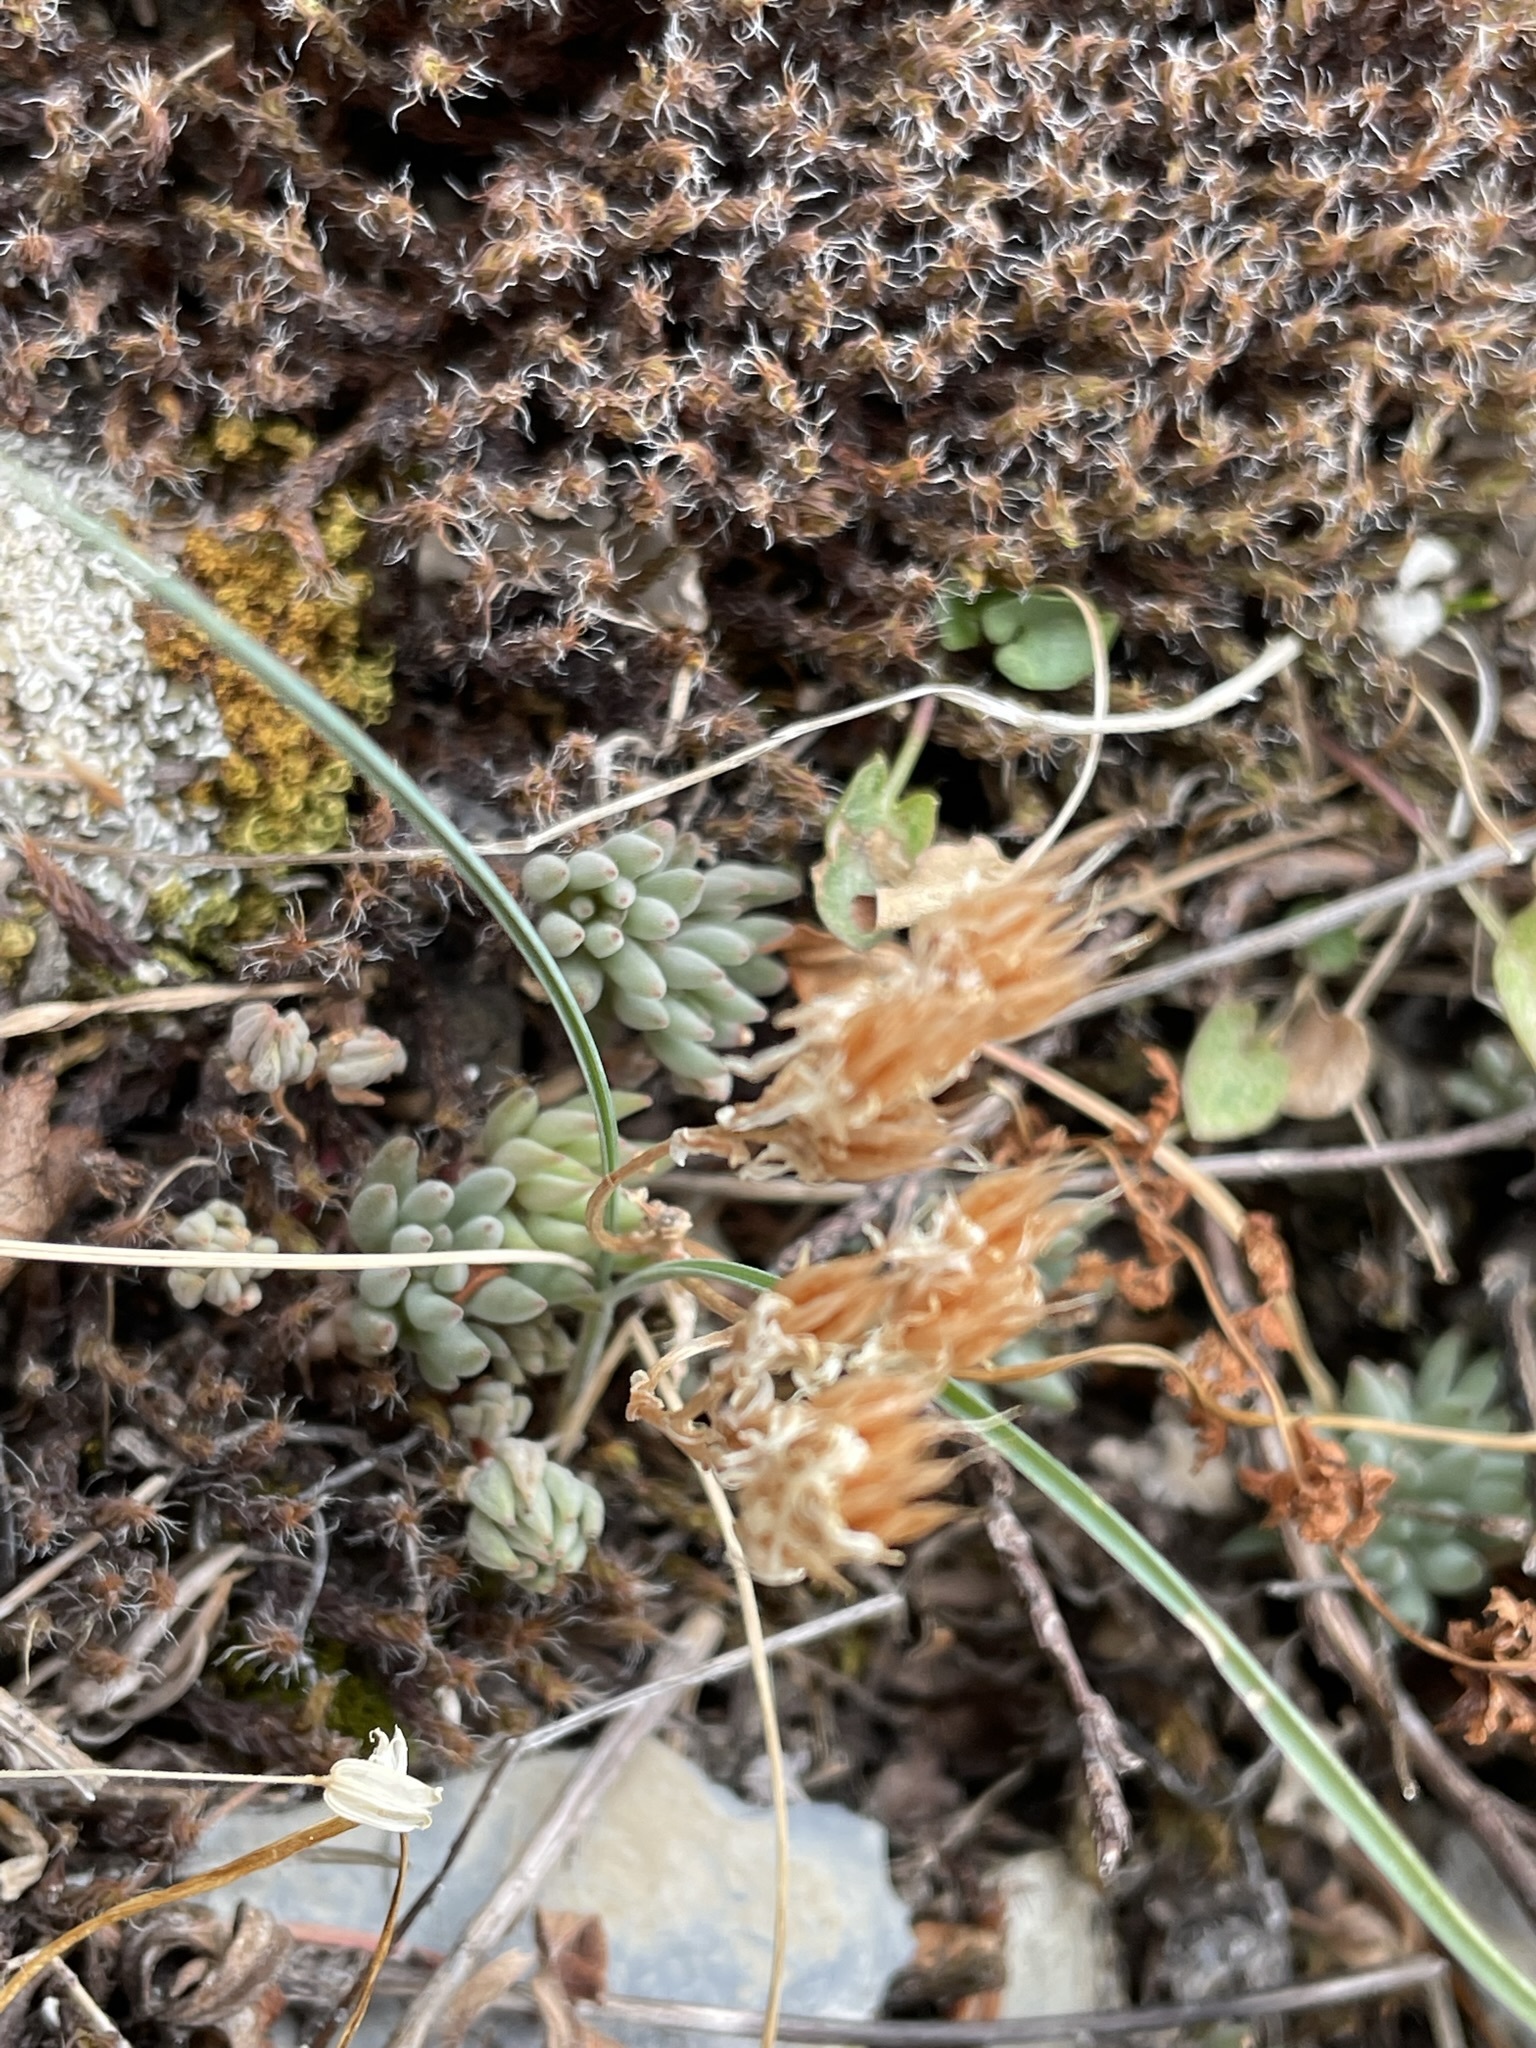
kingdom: Plantae
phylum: Tracheophyta
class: Magnoliopsida
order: Saxifragales
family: Crassulaceae
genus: Sedum
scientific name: Sedum lanceolatum
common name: Common stonecrop
